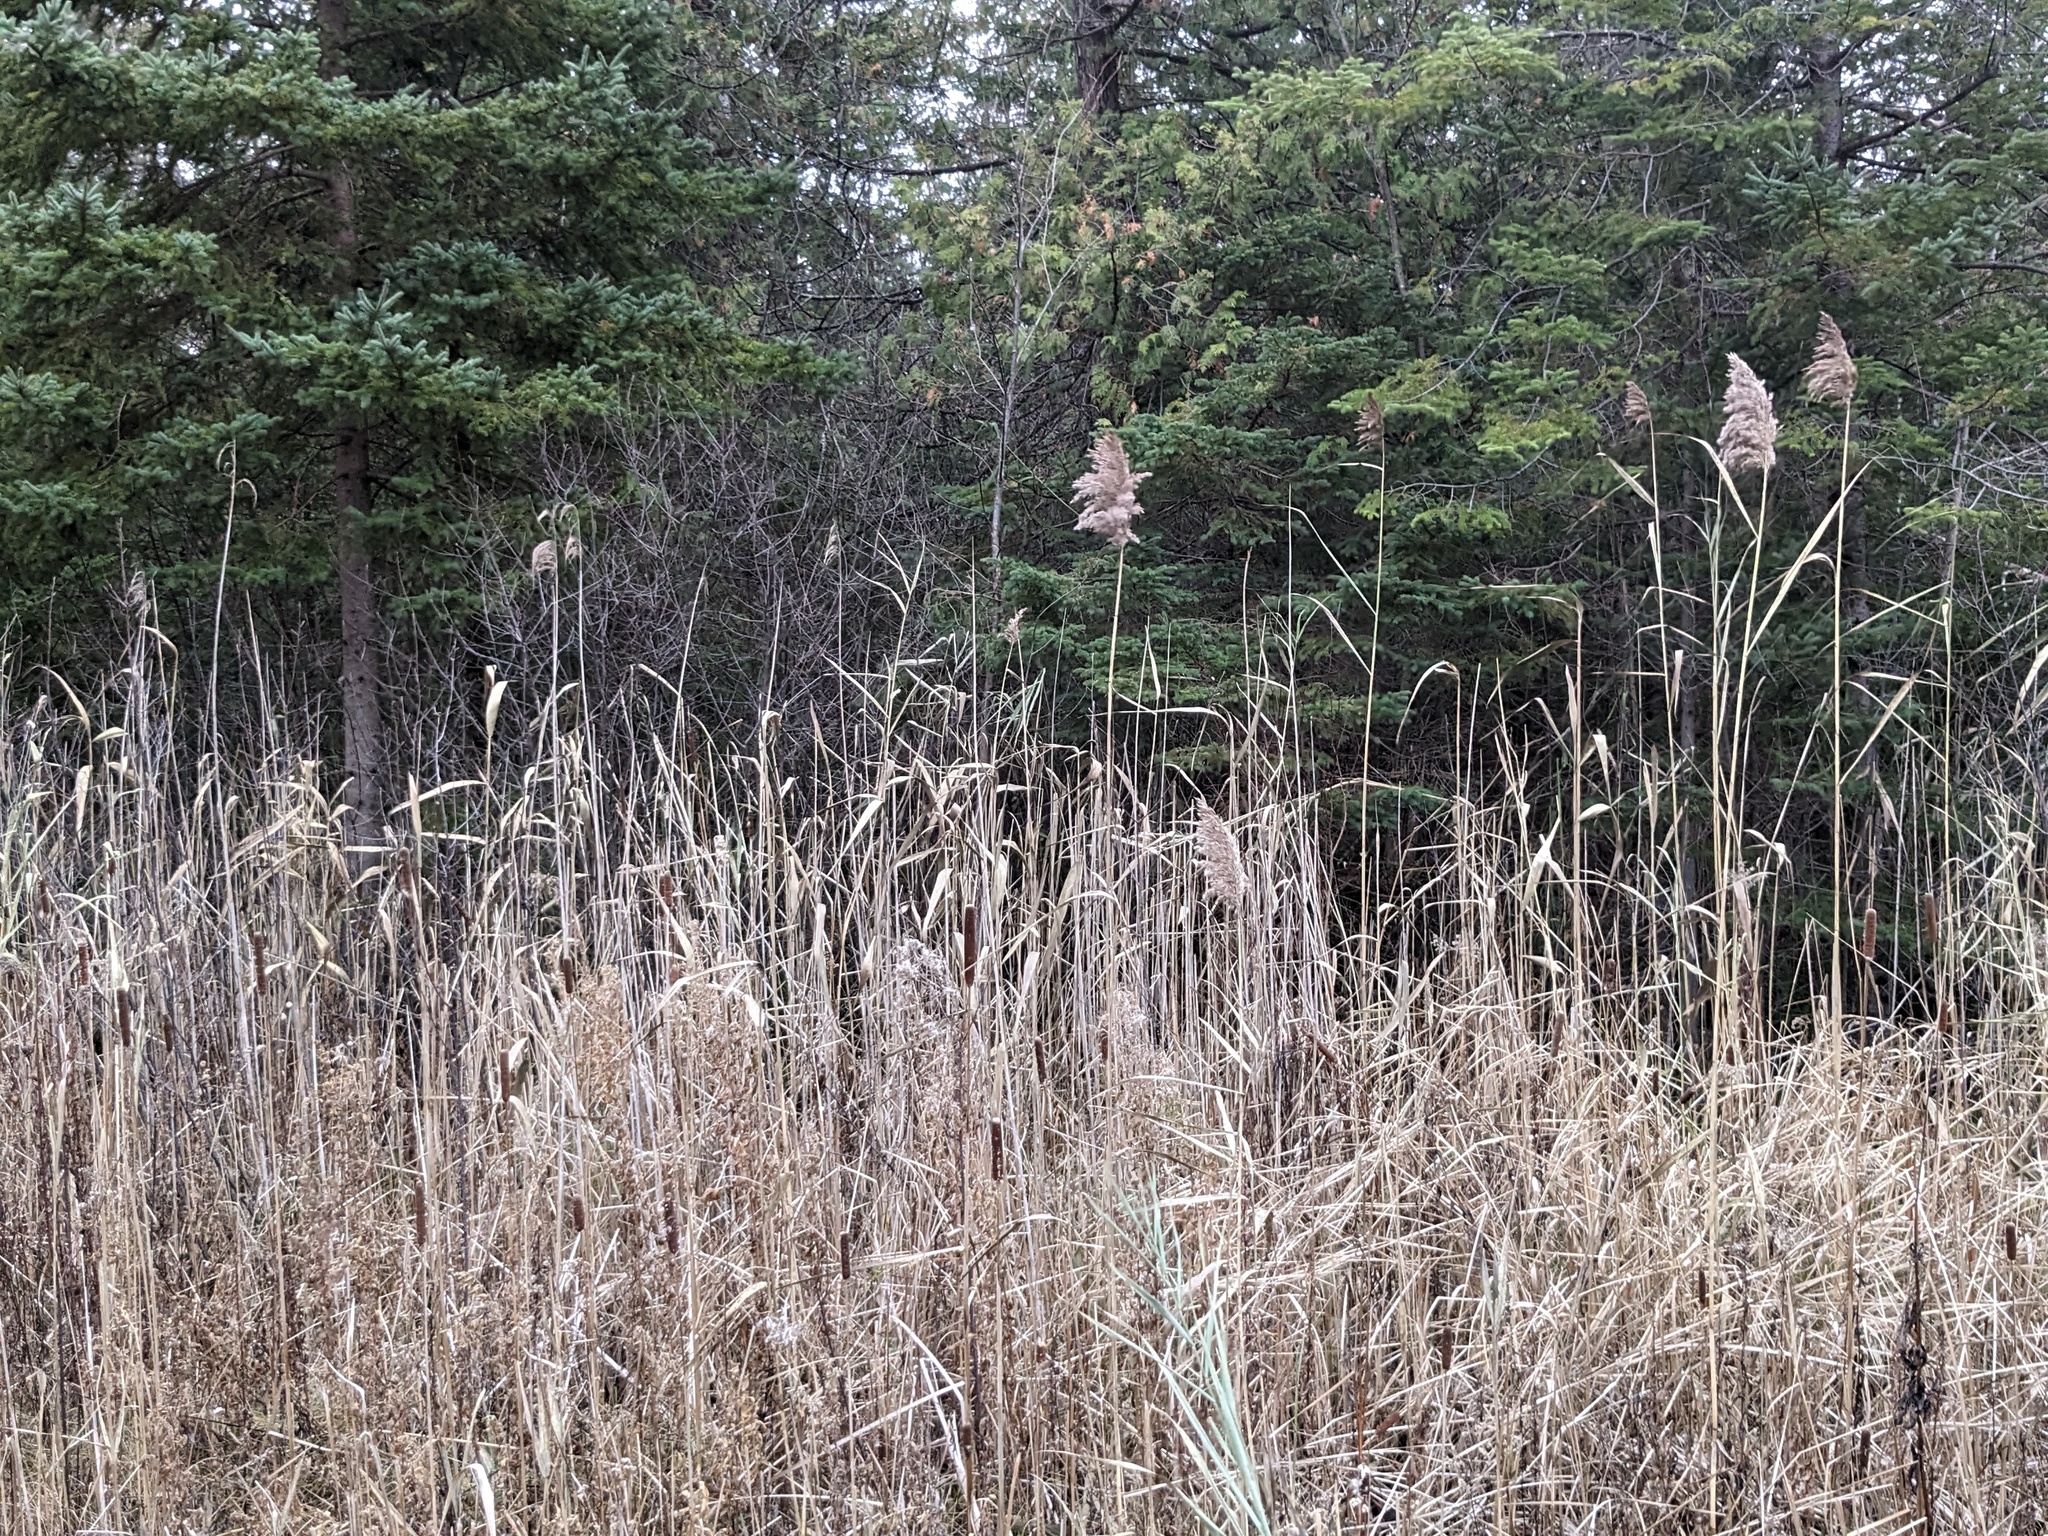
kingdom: Plantae
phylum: Tracheophyta
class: Liliopsida
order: Poales
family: Poaceae
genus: Phragmites
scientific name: Phragmites australis
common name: Common reed
